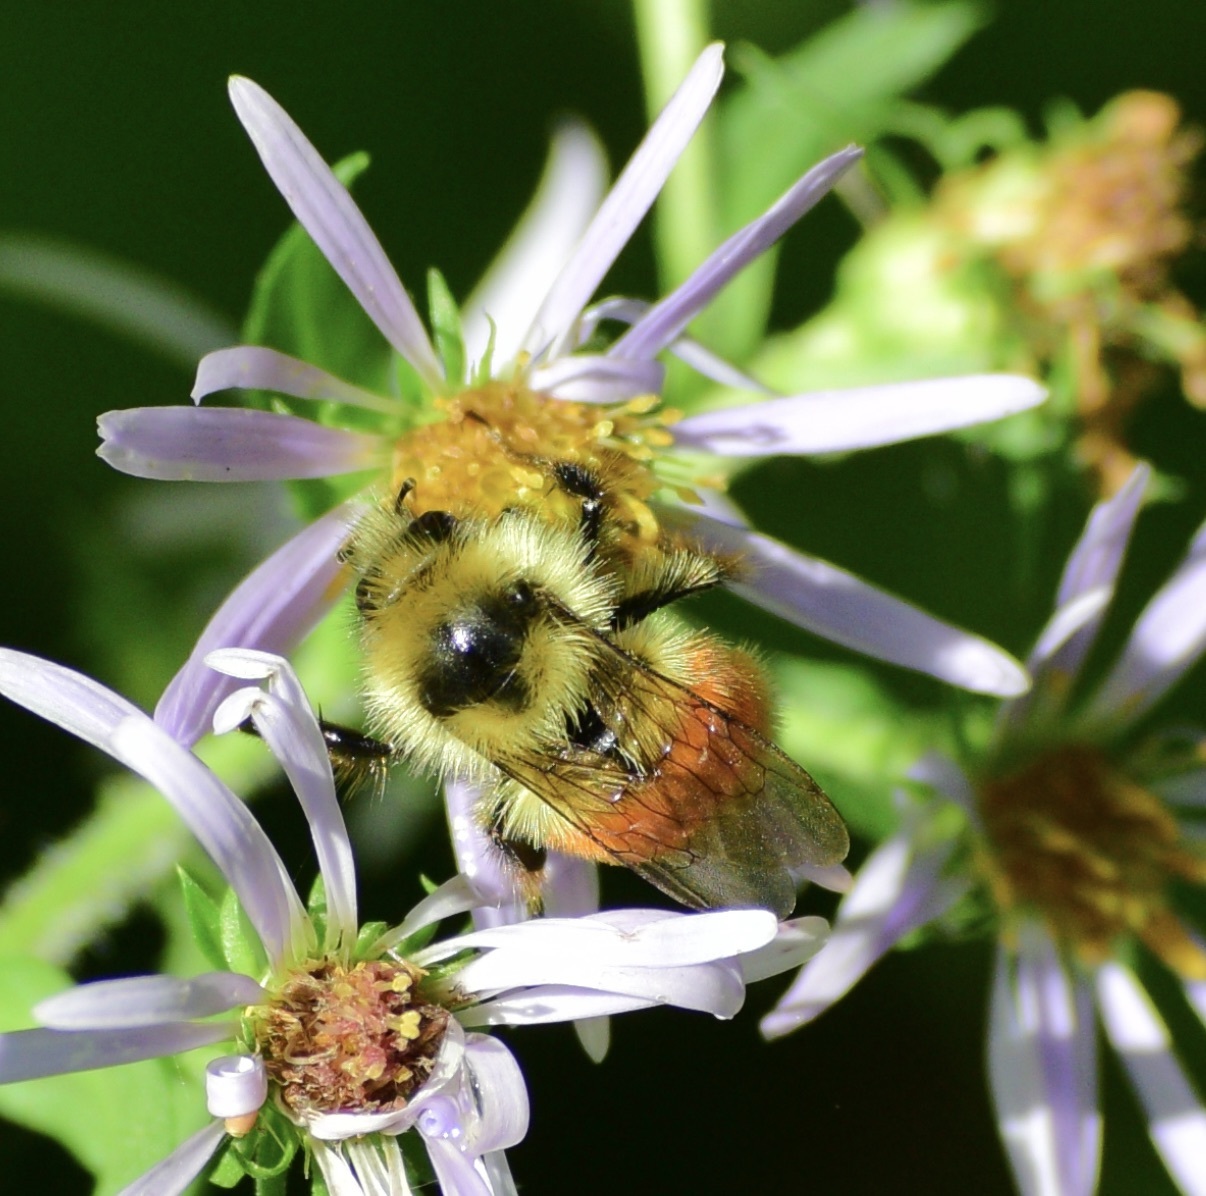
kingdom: Animalia
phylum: Arthropoda
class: Insecta
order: Hymenoptera
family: Apidae
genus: Bombus
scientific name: Bombus ternarius
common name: Tri-colored bumble bee
